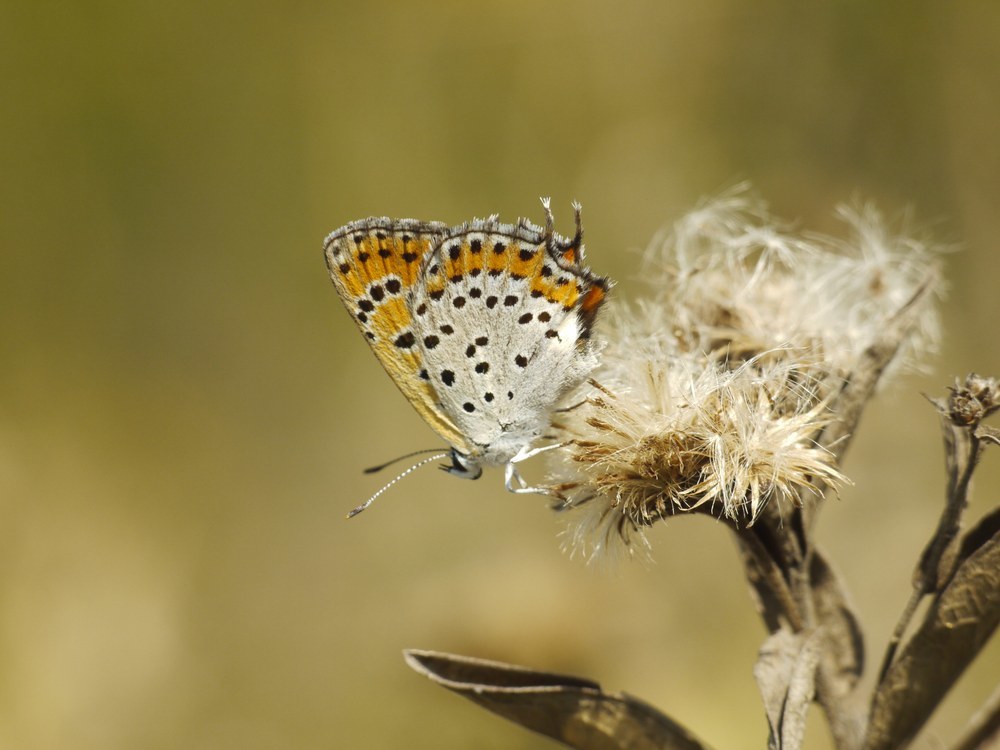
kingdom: Animalia
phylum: Arthropoda
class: Insecta
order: Lepidoptera
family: Lycaenidae
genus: Thersamonia
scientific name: Thersamonia thersamon
